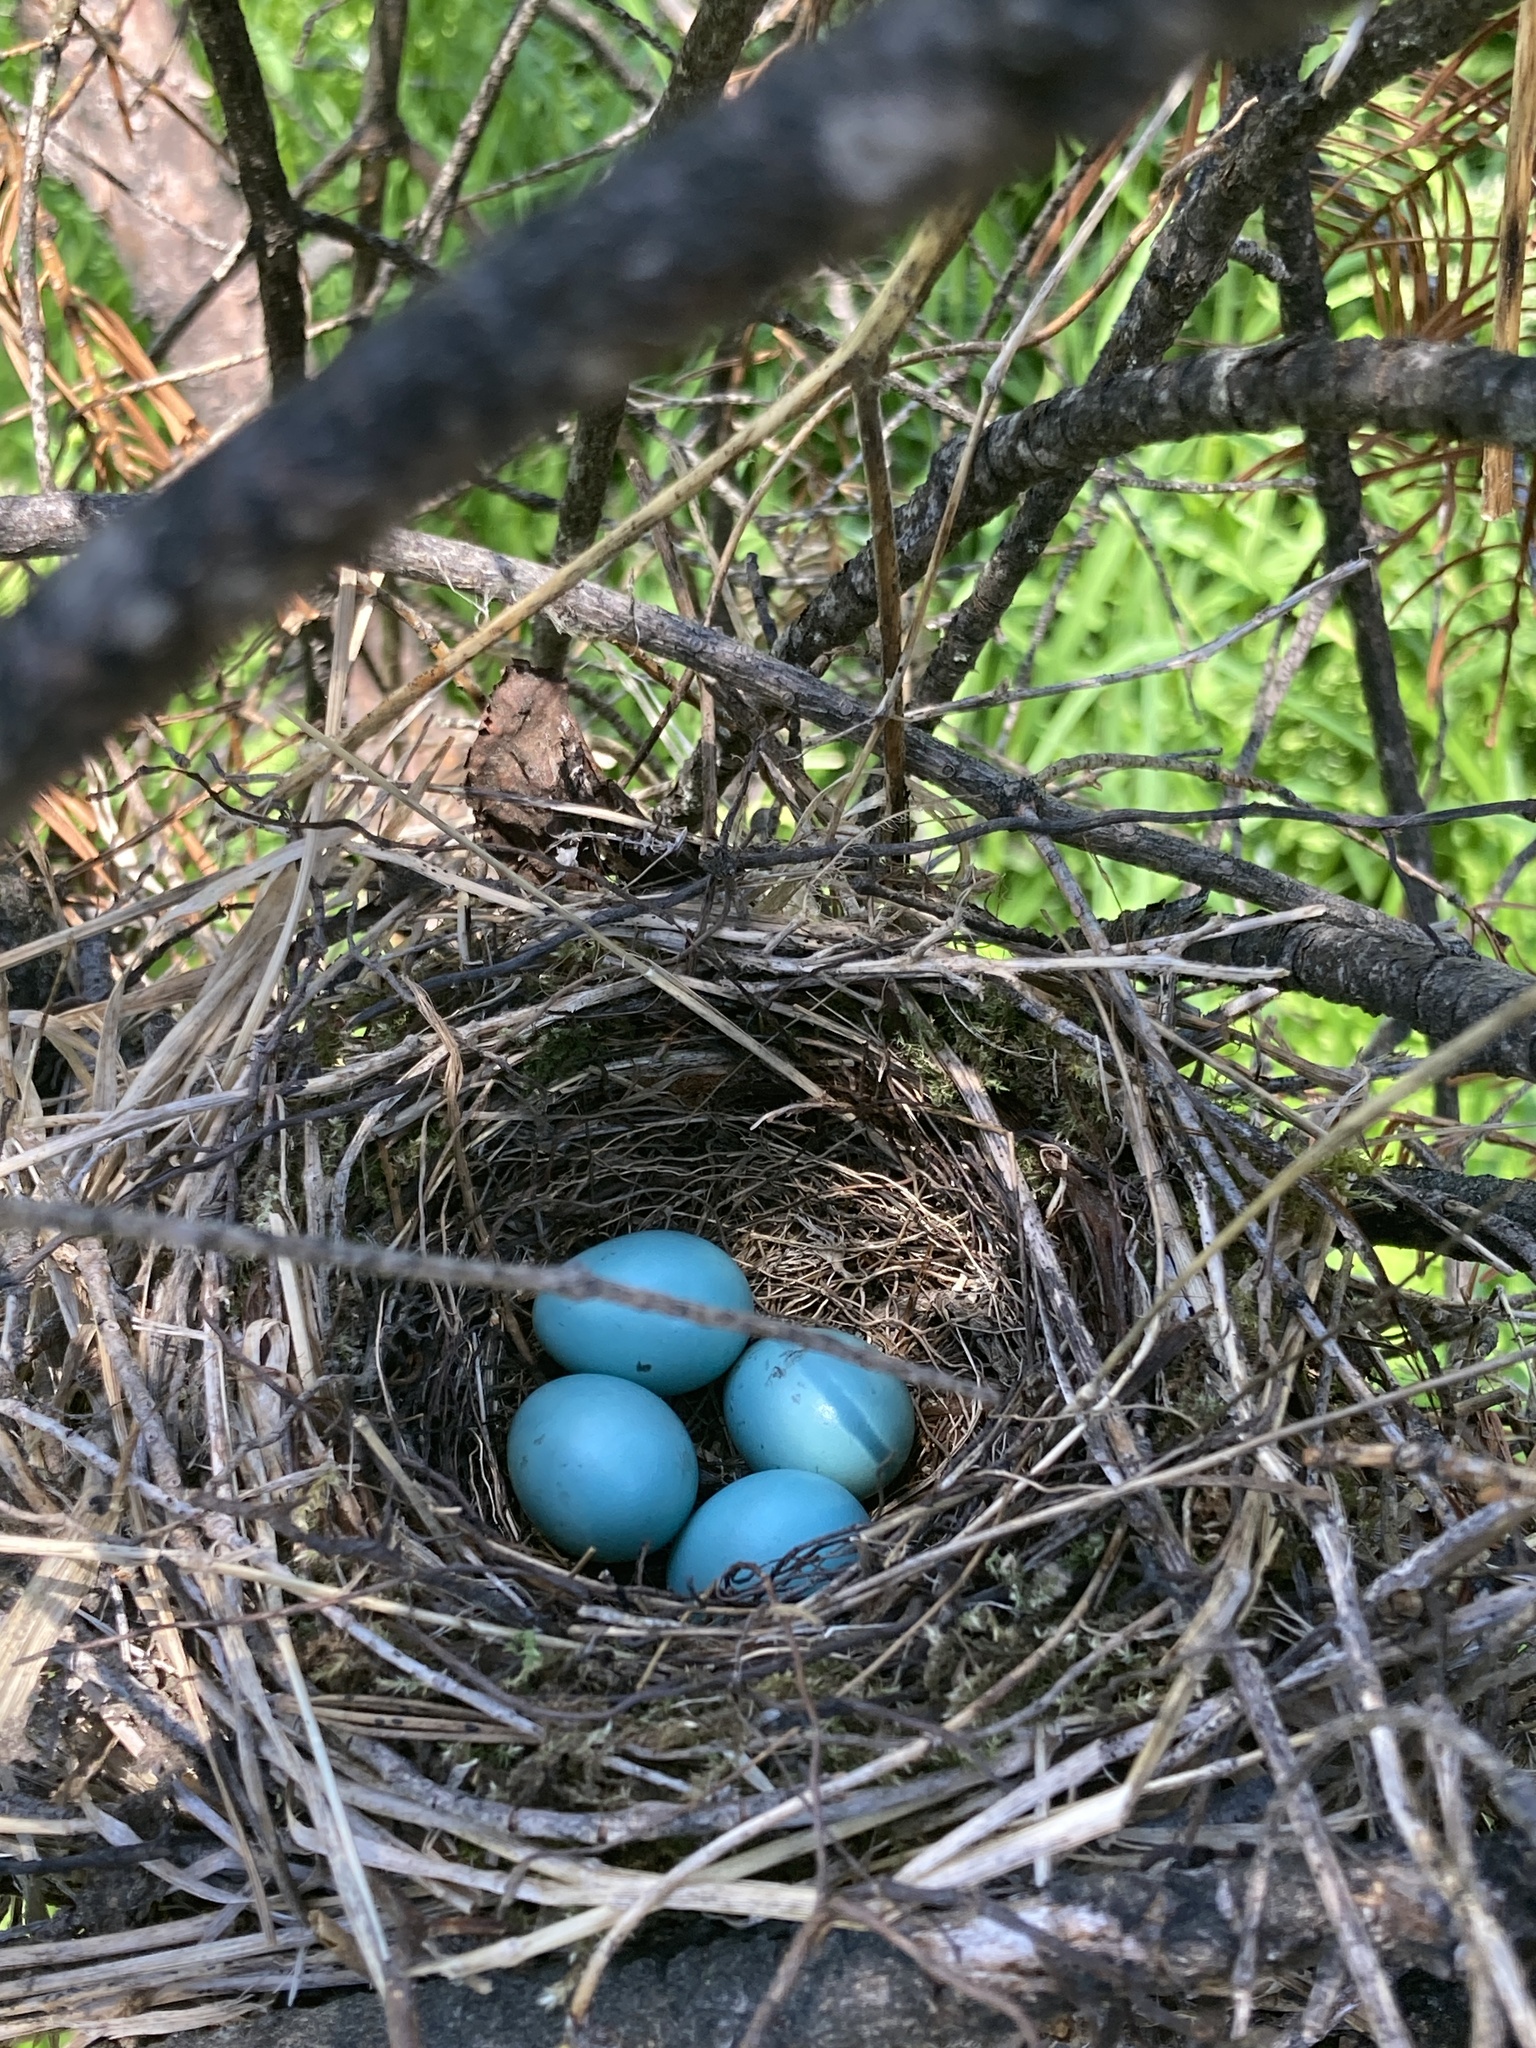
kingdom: Animalia
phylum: Chordata
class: Aves
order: Passeriformes
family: Turdidae
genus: Catharus
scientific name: Catharus guttatus
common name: Hermit thrush
